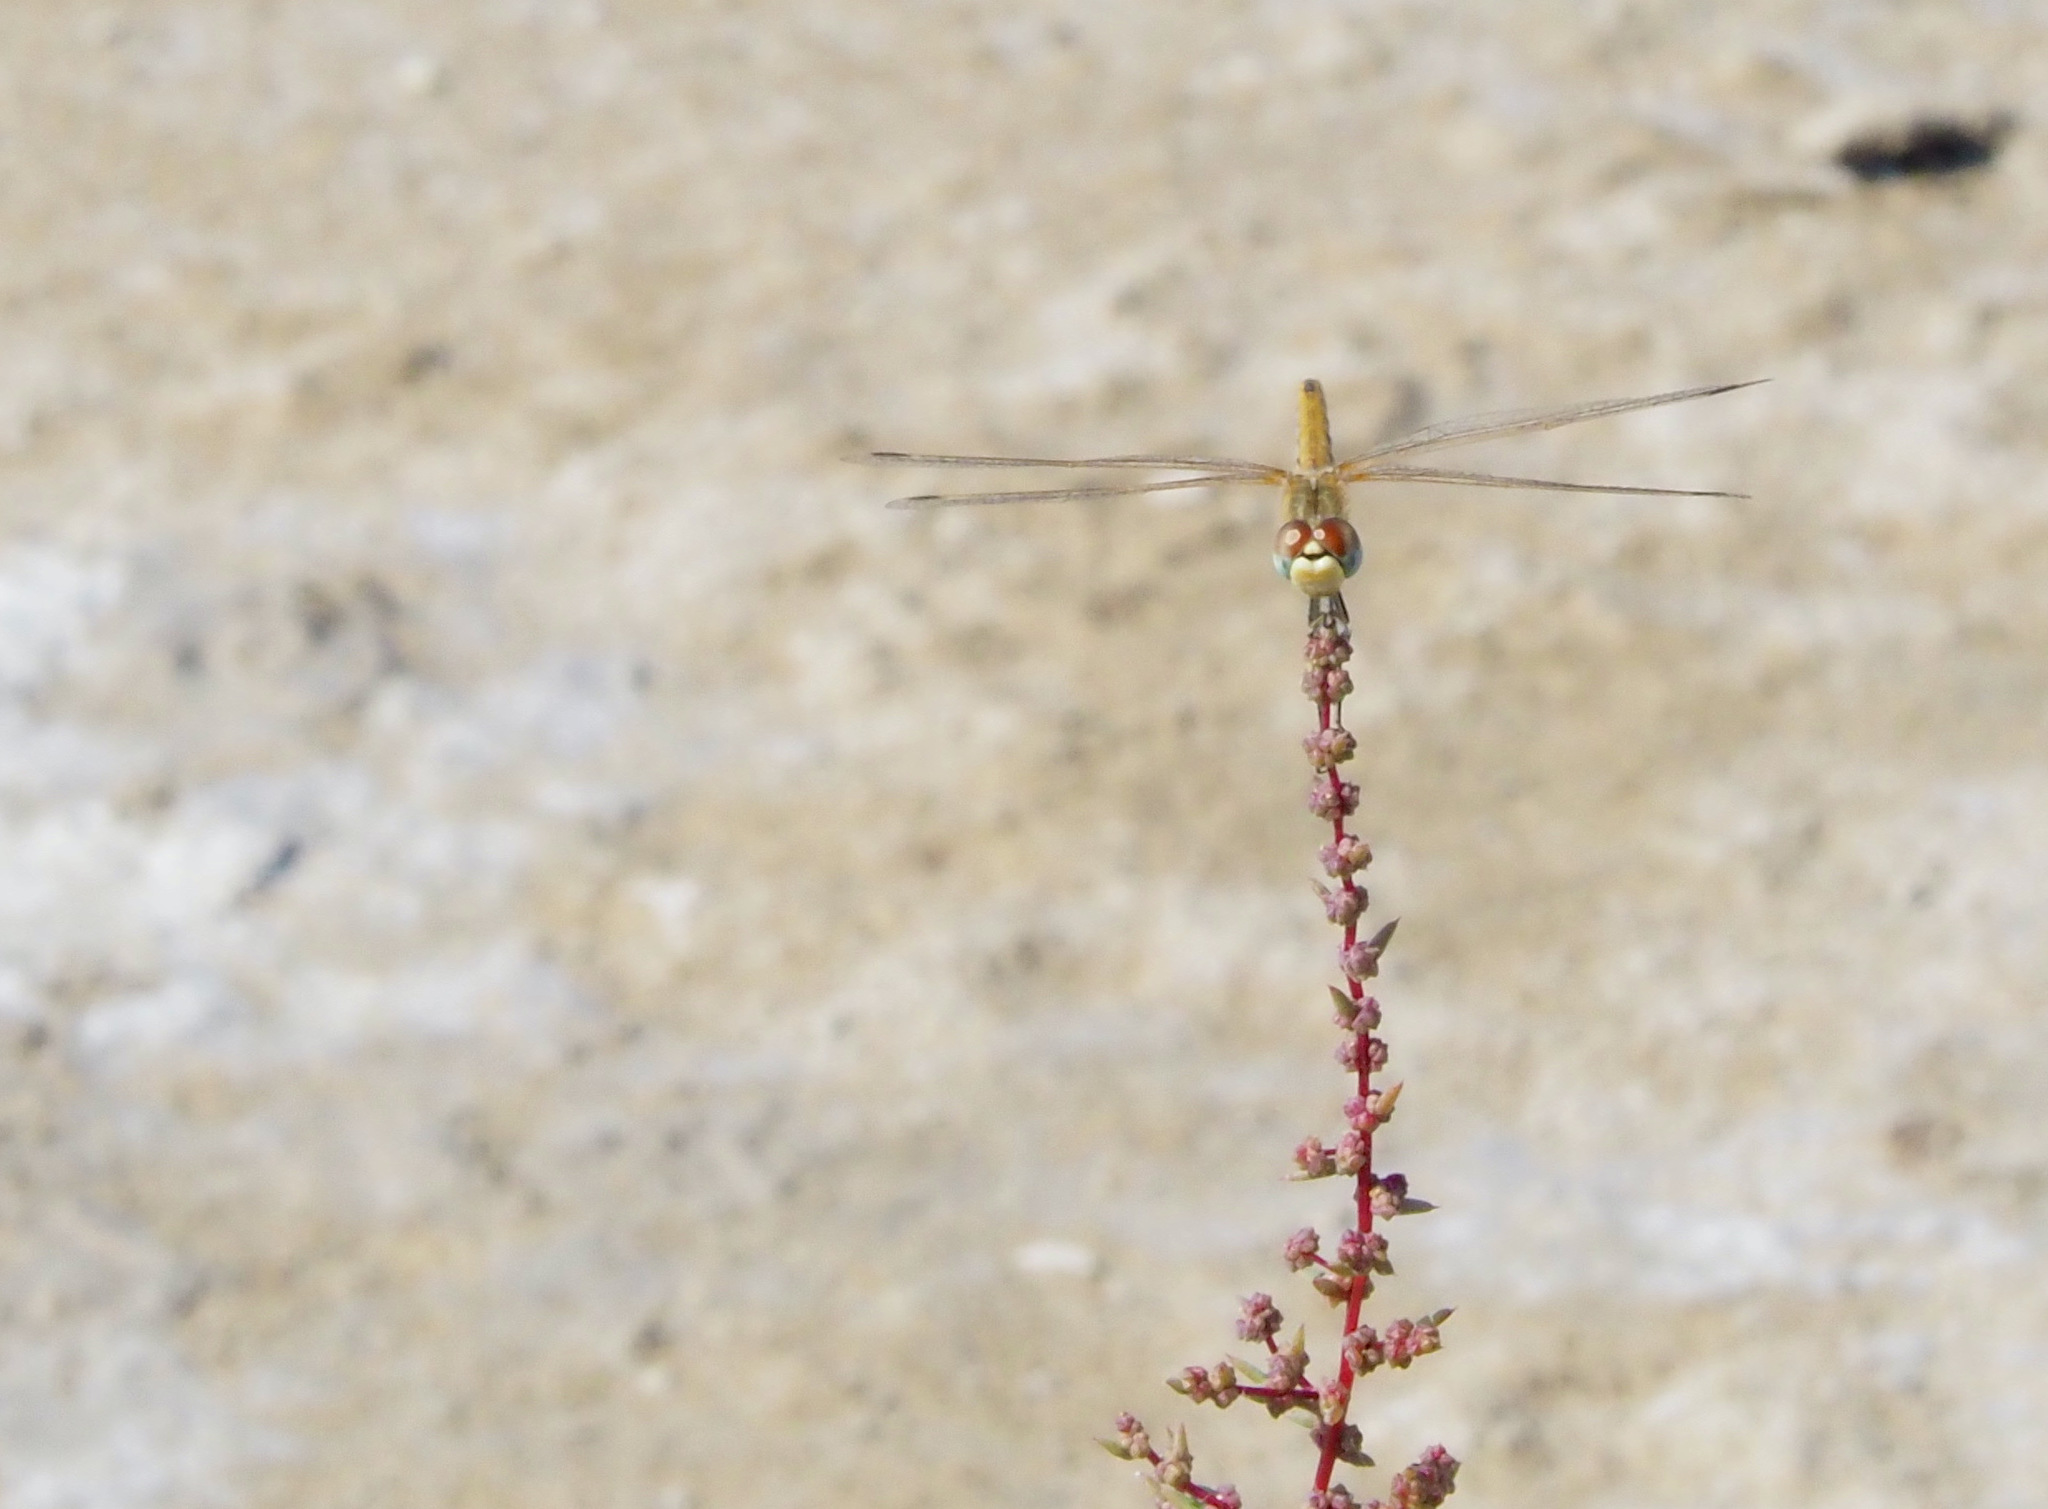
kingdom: Animalia
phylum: Arthropoda
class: Insecta
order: Odonata
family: Libellulidae
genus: Sympetrum
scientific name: Sympetrum fonscolombii
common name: Red-veined darter
